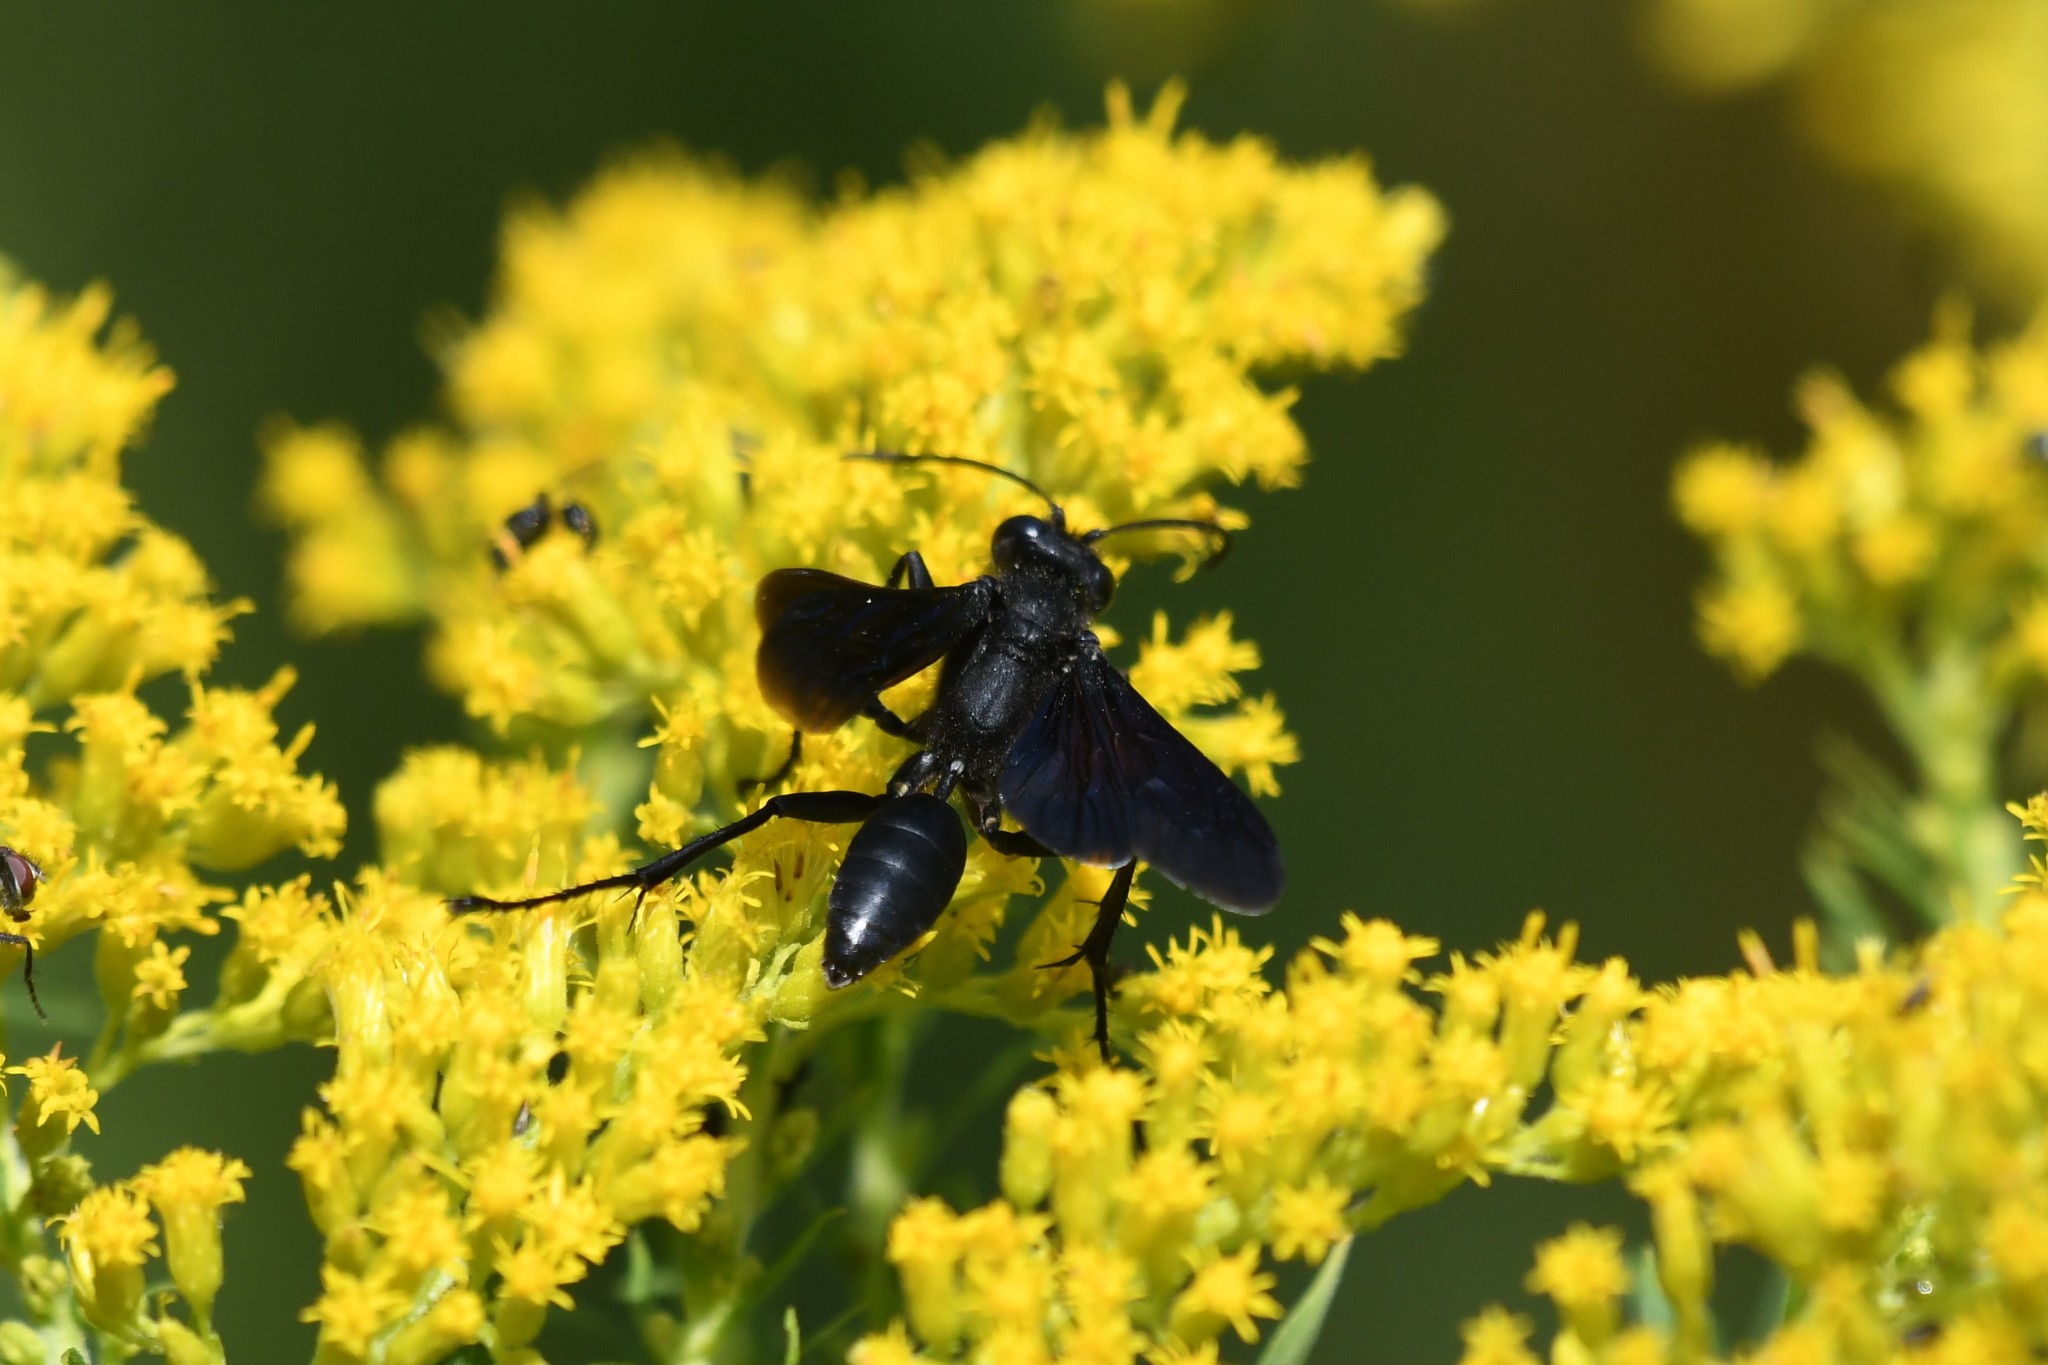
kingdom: Animalia
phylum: Arthropoda
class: Insecta
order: Hymenoptera
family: Sphecidae
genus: Sphex
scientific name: Sphex pensylvanicus
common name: Great black digger wasp
